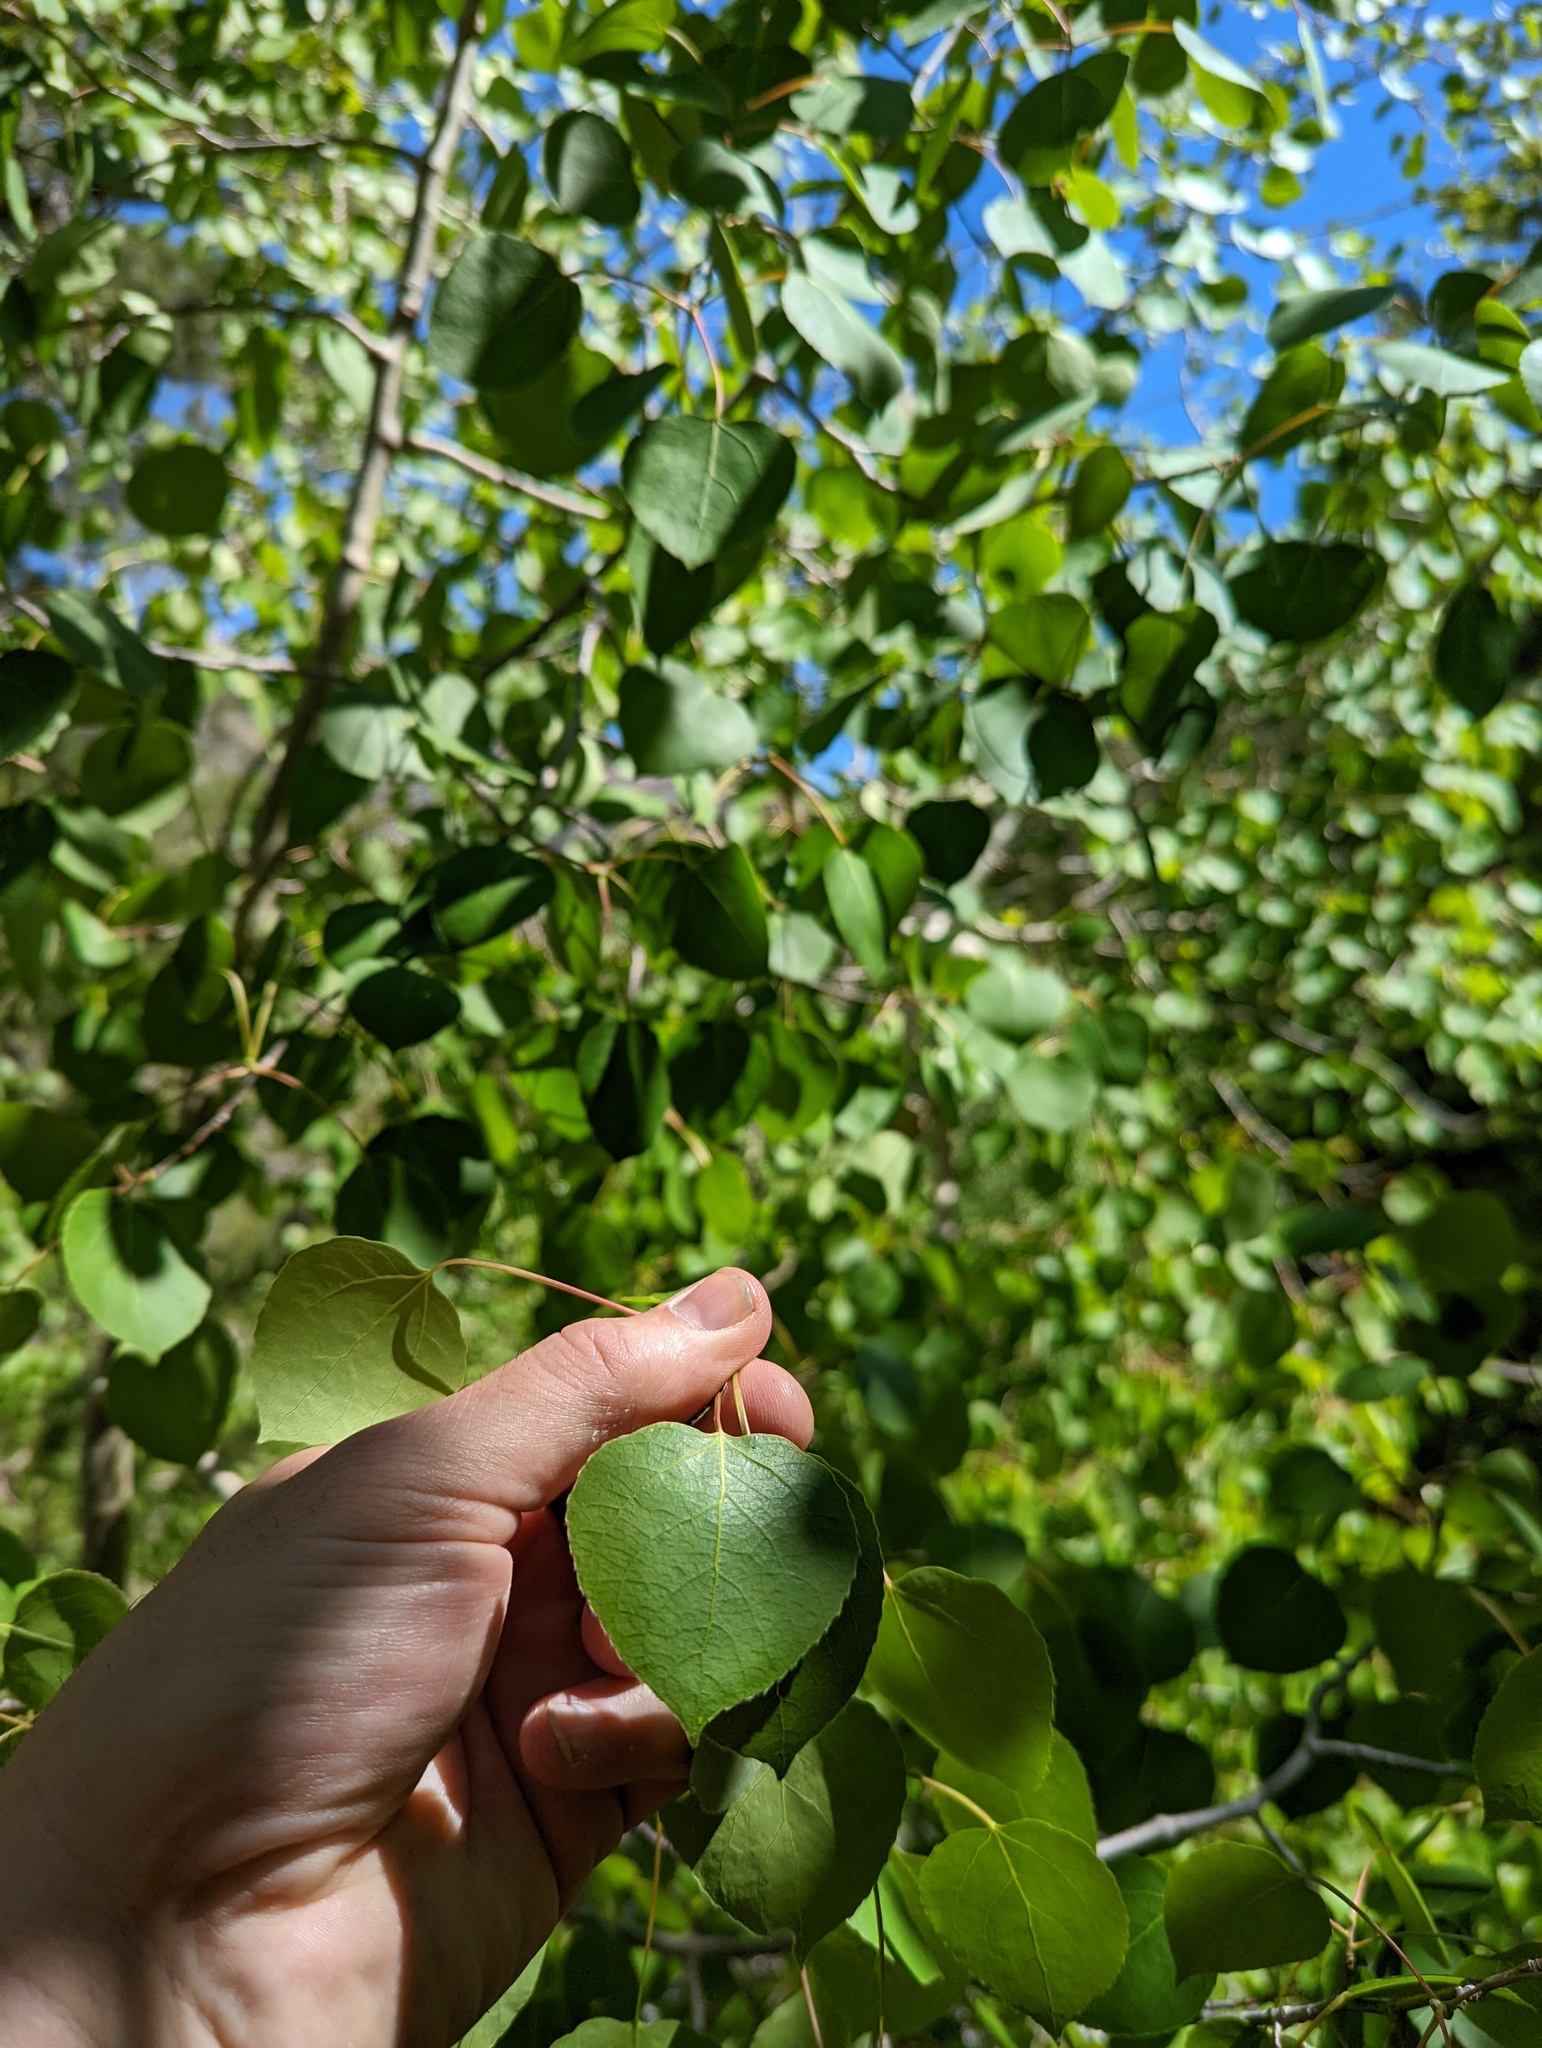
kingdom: Plantae
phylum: Tracheophyta
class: Magnoliopsida
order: Malpighiales
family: Salicaceae
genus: Populus
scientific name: Populus tremuloides
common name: Quaking aspen
